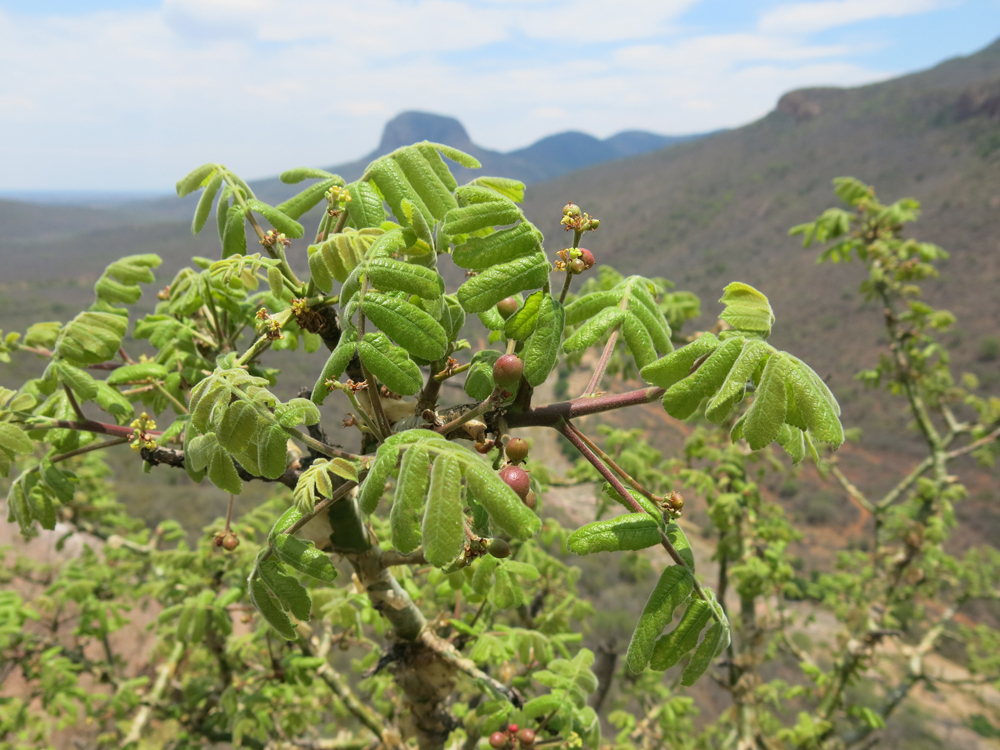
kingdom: Plantae
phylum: Tracheophyta
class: Magnoliopsida
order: Sapindales
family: Burseraceae
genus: Commiphora
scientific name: Commiphora marlothii
